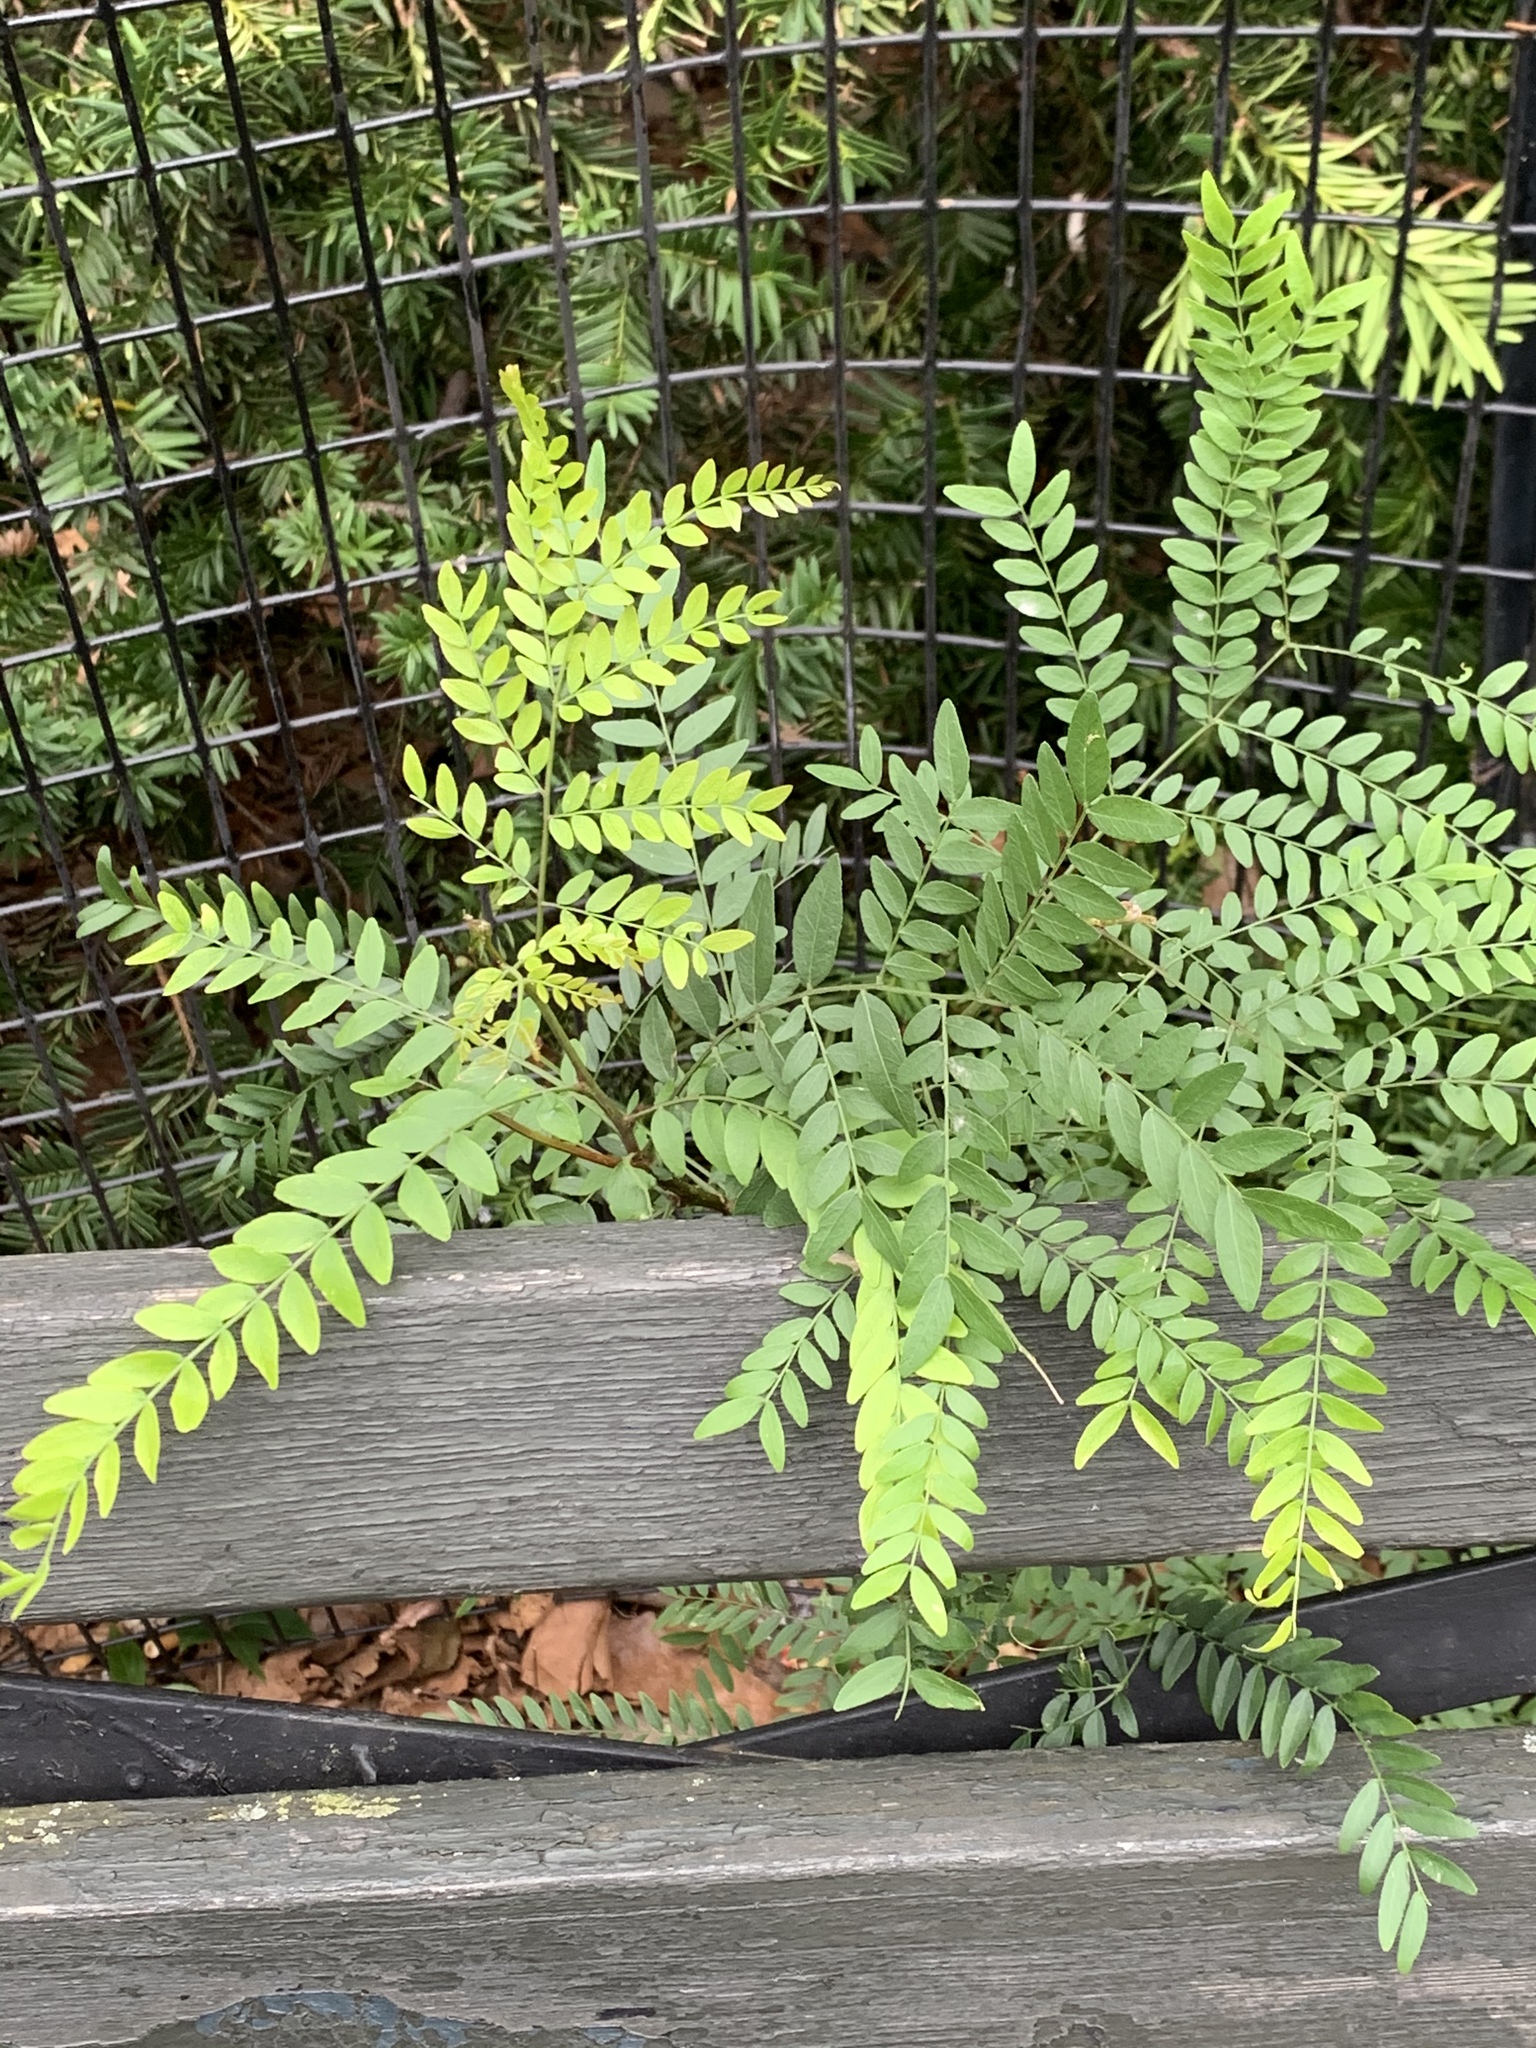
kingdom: Plantae
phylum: Tracheophyta
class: Magnoliopsida
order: Fabales
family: Fabaceae
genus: Gleditsia
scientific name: Gleditsia triacanthos
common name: Common honeylocust
